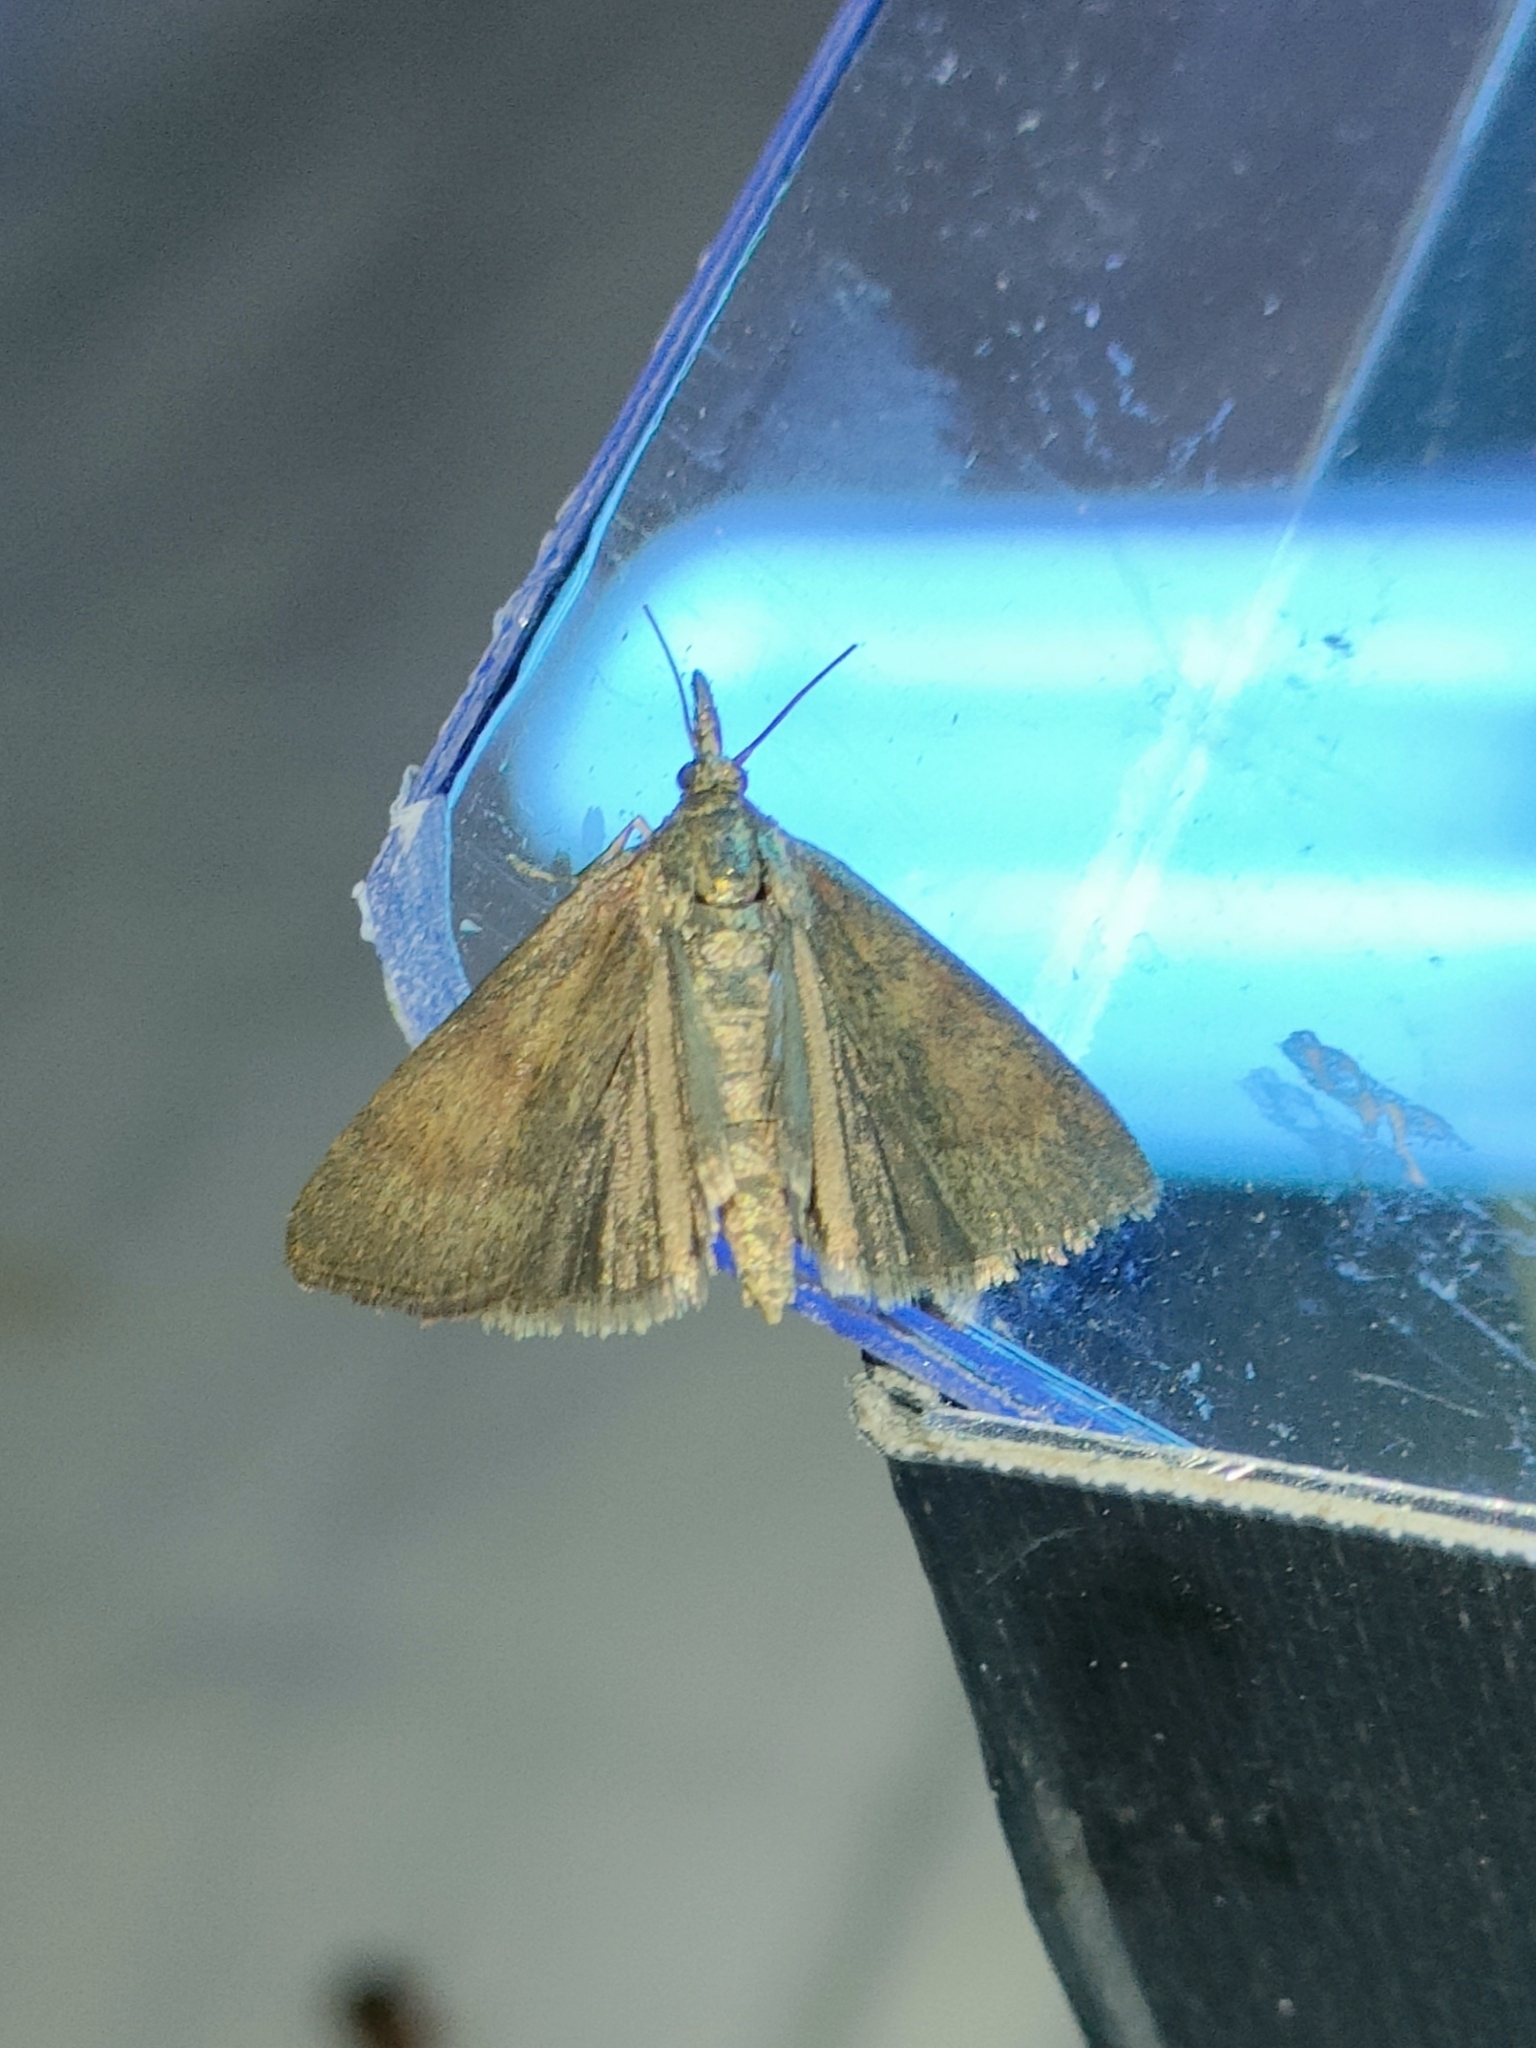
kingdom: Animalia
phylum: Arthropoda
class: Insecta
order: Lepidoptera
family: Pyralidae
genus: Hypochalcia
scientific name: Hypochalcia ahenella
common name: Dingy knot-horn
